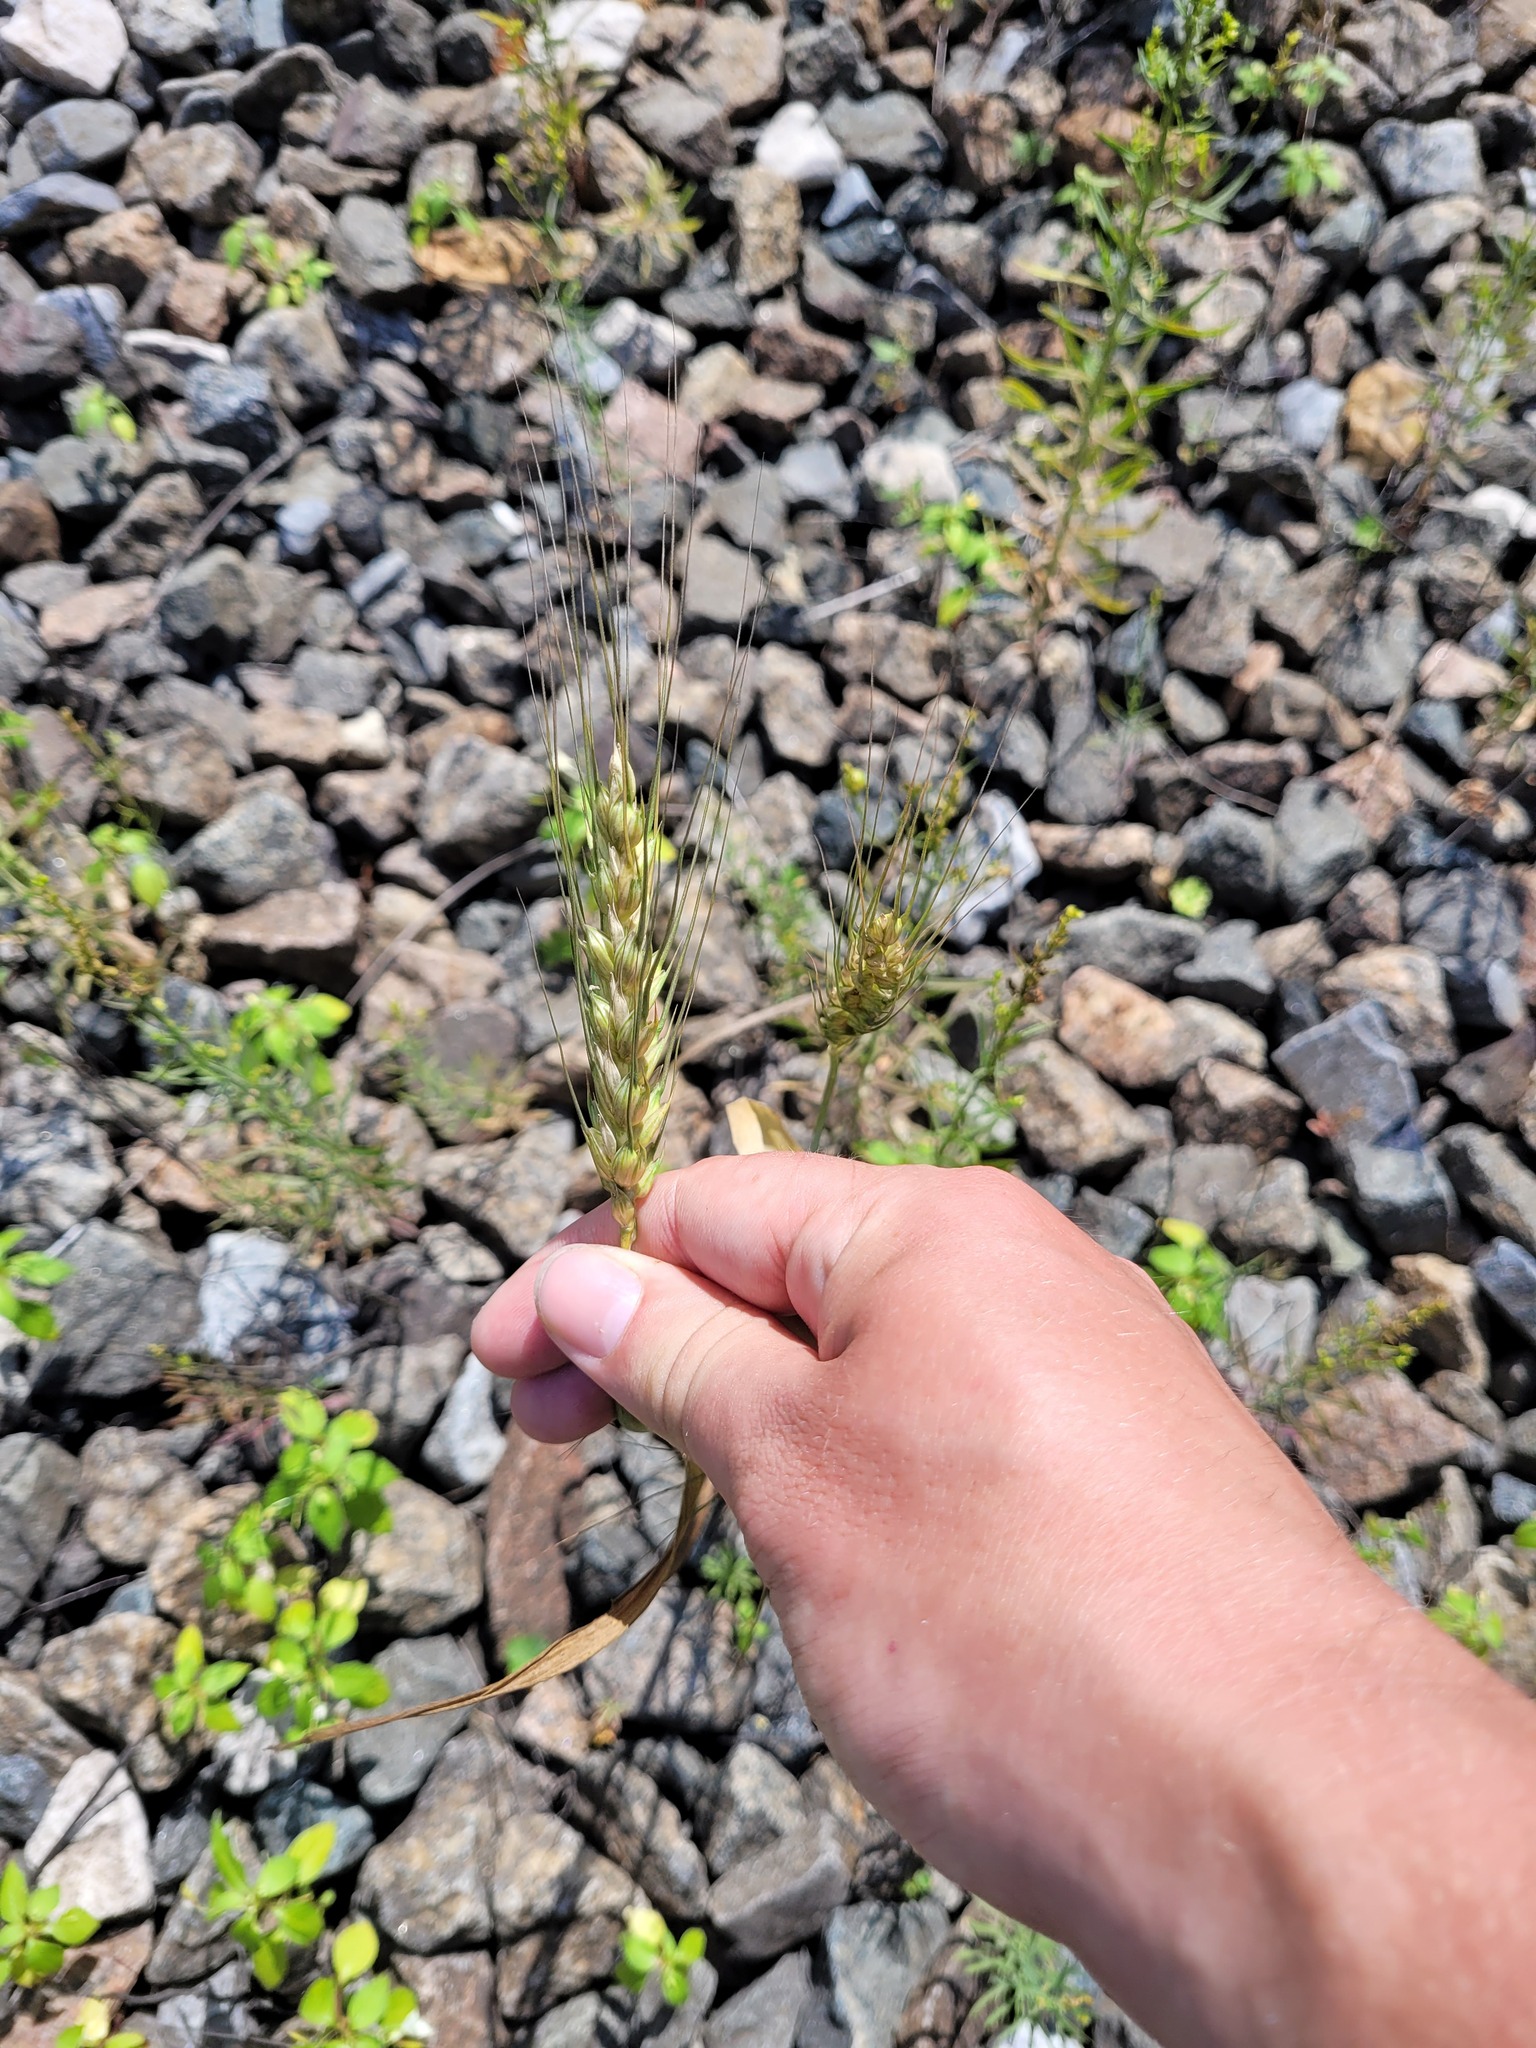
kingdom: Plantae
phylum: Tracheophyta
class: Liliopsida
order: Poales
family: Poaceae
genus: Triticum
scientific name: Triticum aestivum
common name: Common wheat
